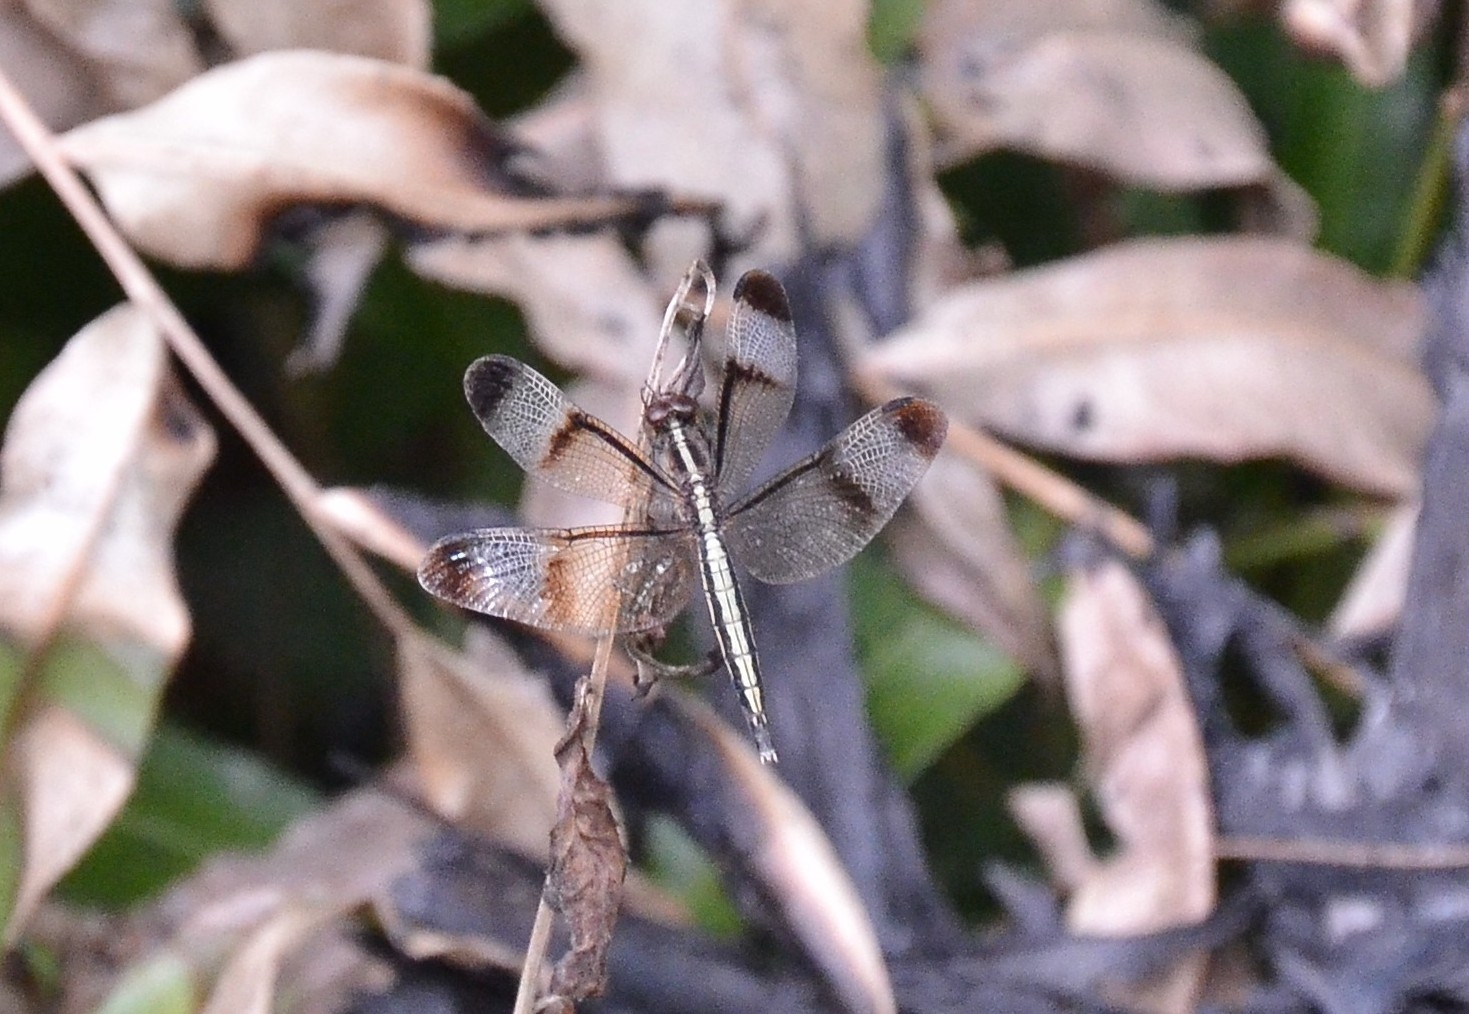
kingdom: Animalia
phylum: Arthropoda
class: Insecta
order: Odonata
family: Libellulidae
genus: Neurothemis
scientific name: Neurothemis tullia
